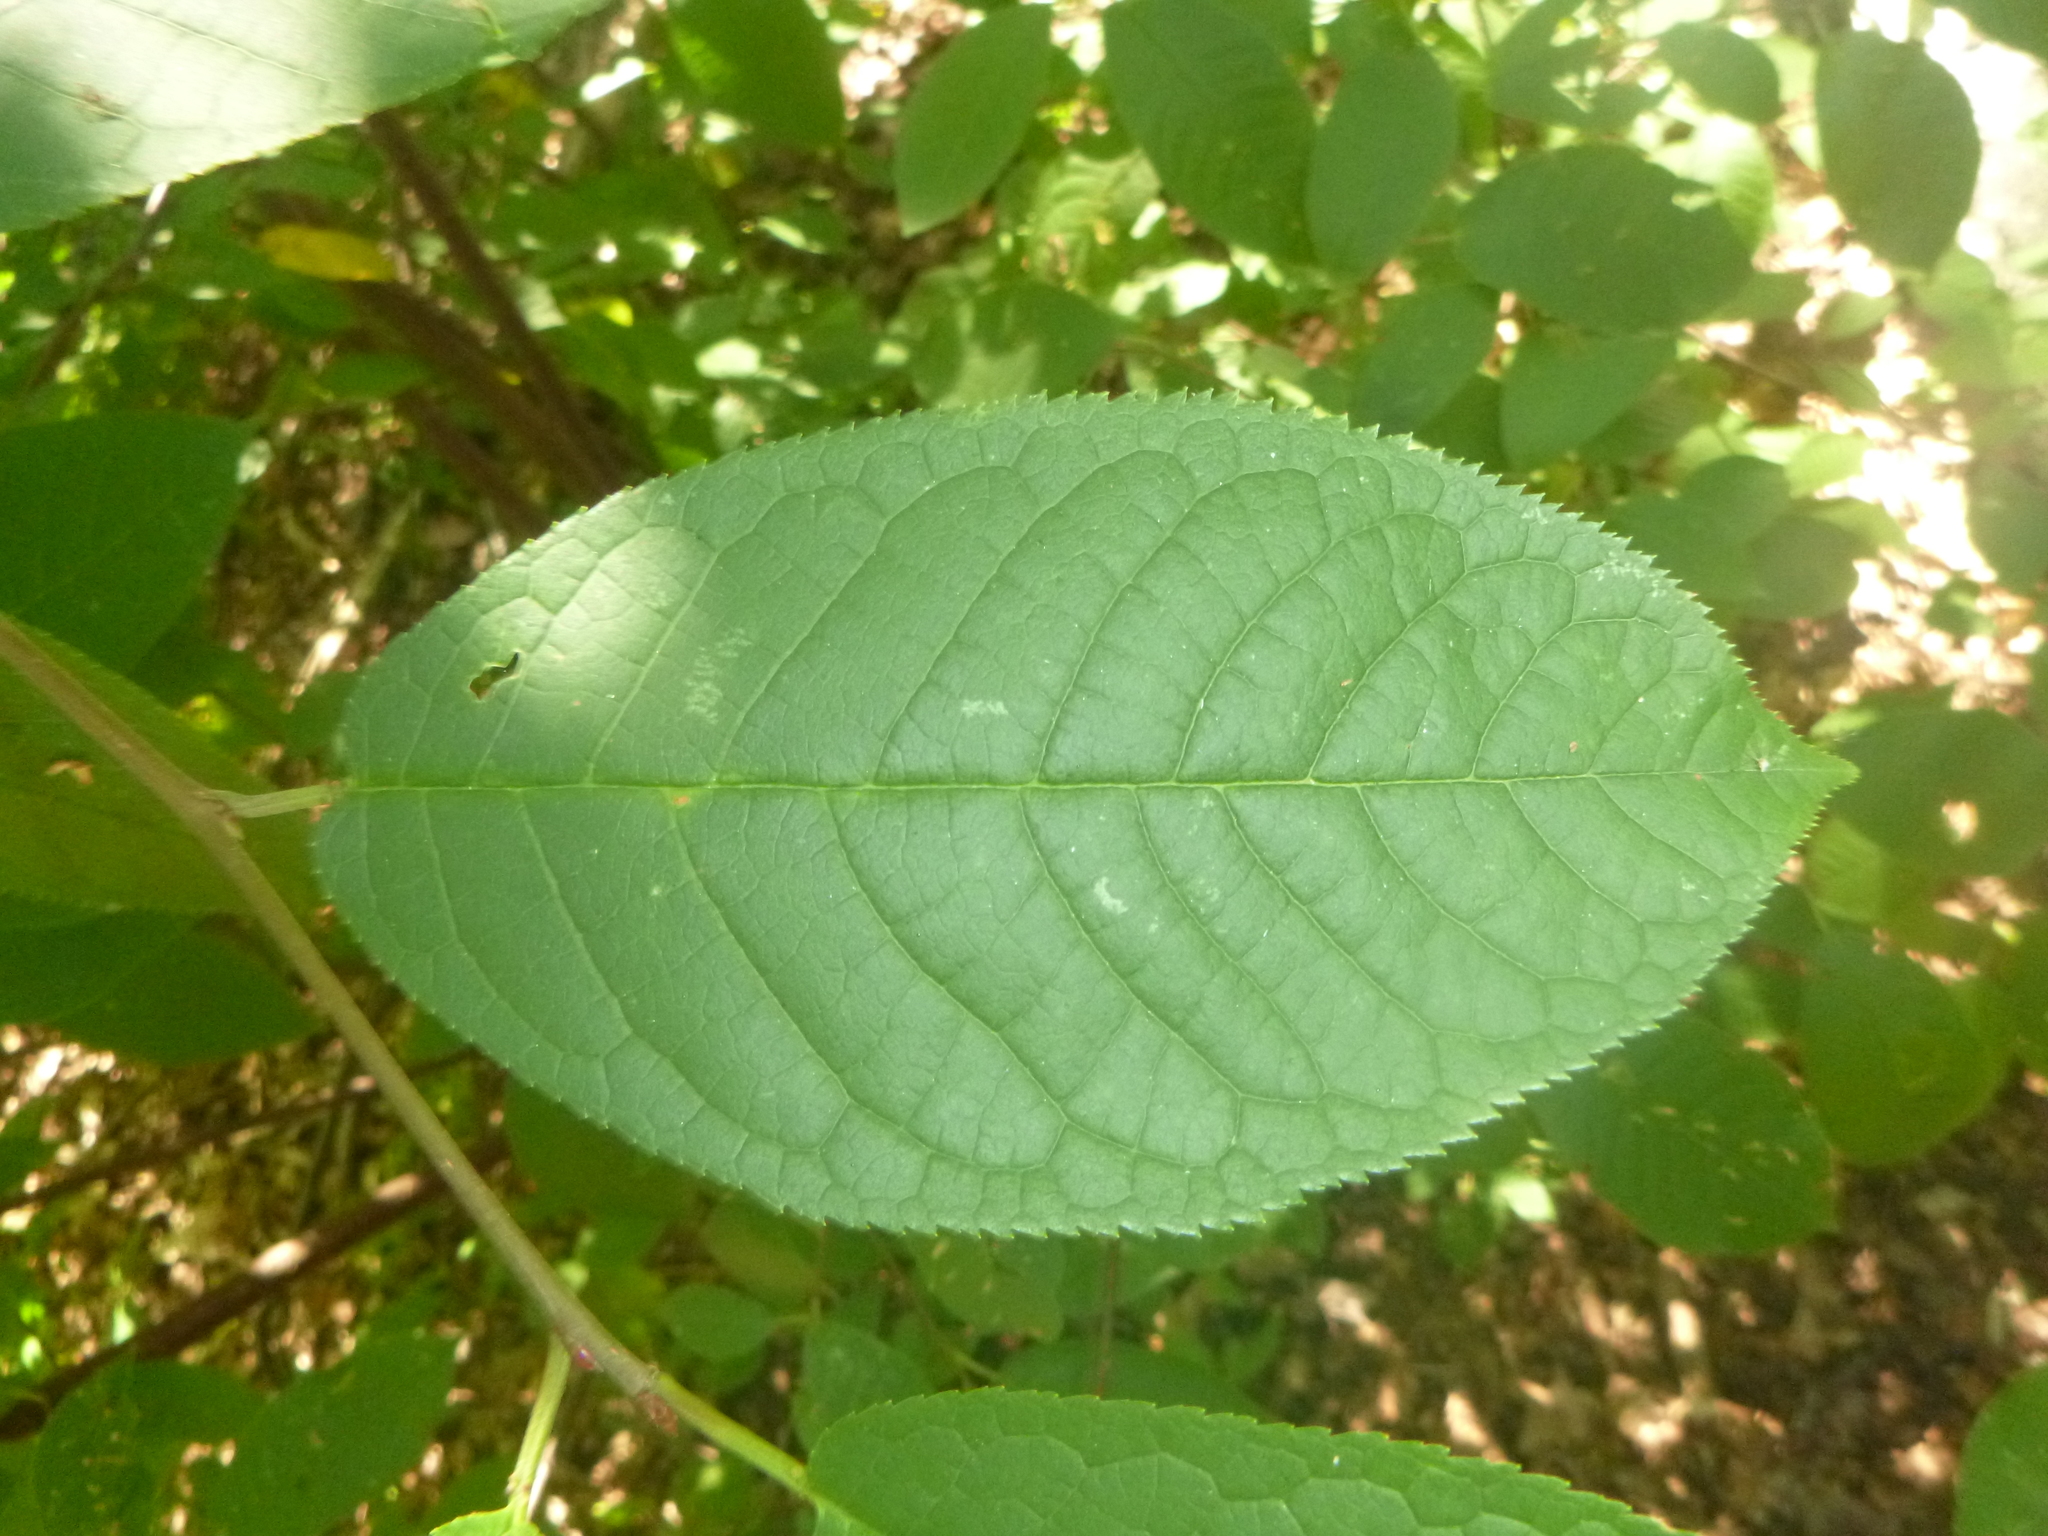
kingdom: Plantae
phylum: Tracheophyta
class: Magnoliopsida
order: Rosales
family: Rosaceae
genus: Prunus
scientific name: Prunus padus
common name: Bird cherry
